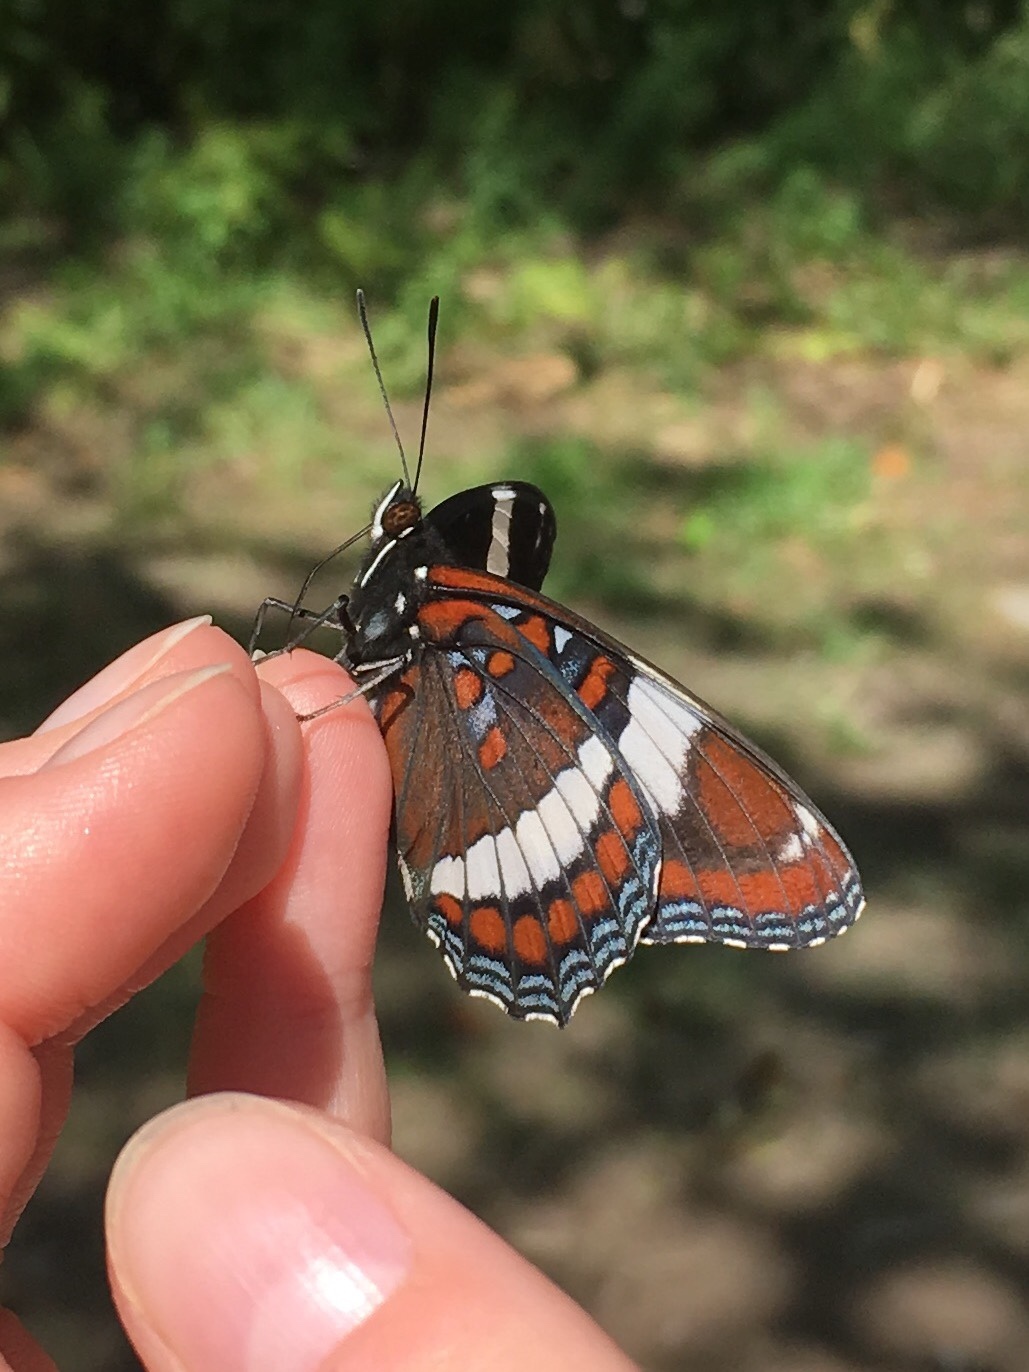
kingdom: Animalia
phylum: Arthropoda
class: Insecta
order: Lepidoptera
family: Nymphalidae
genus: Limenitis
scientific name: Limenitis arthemis
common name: Red-spotted admiral
